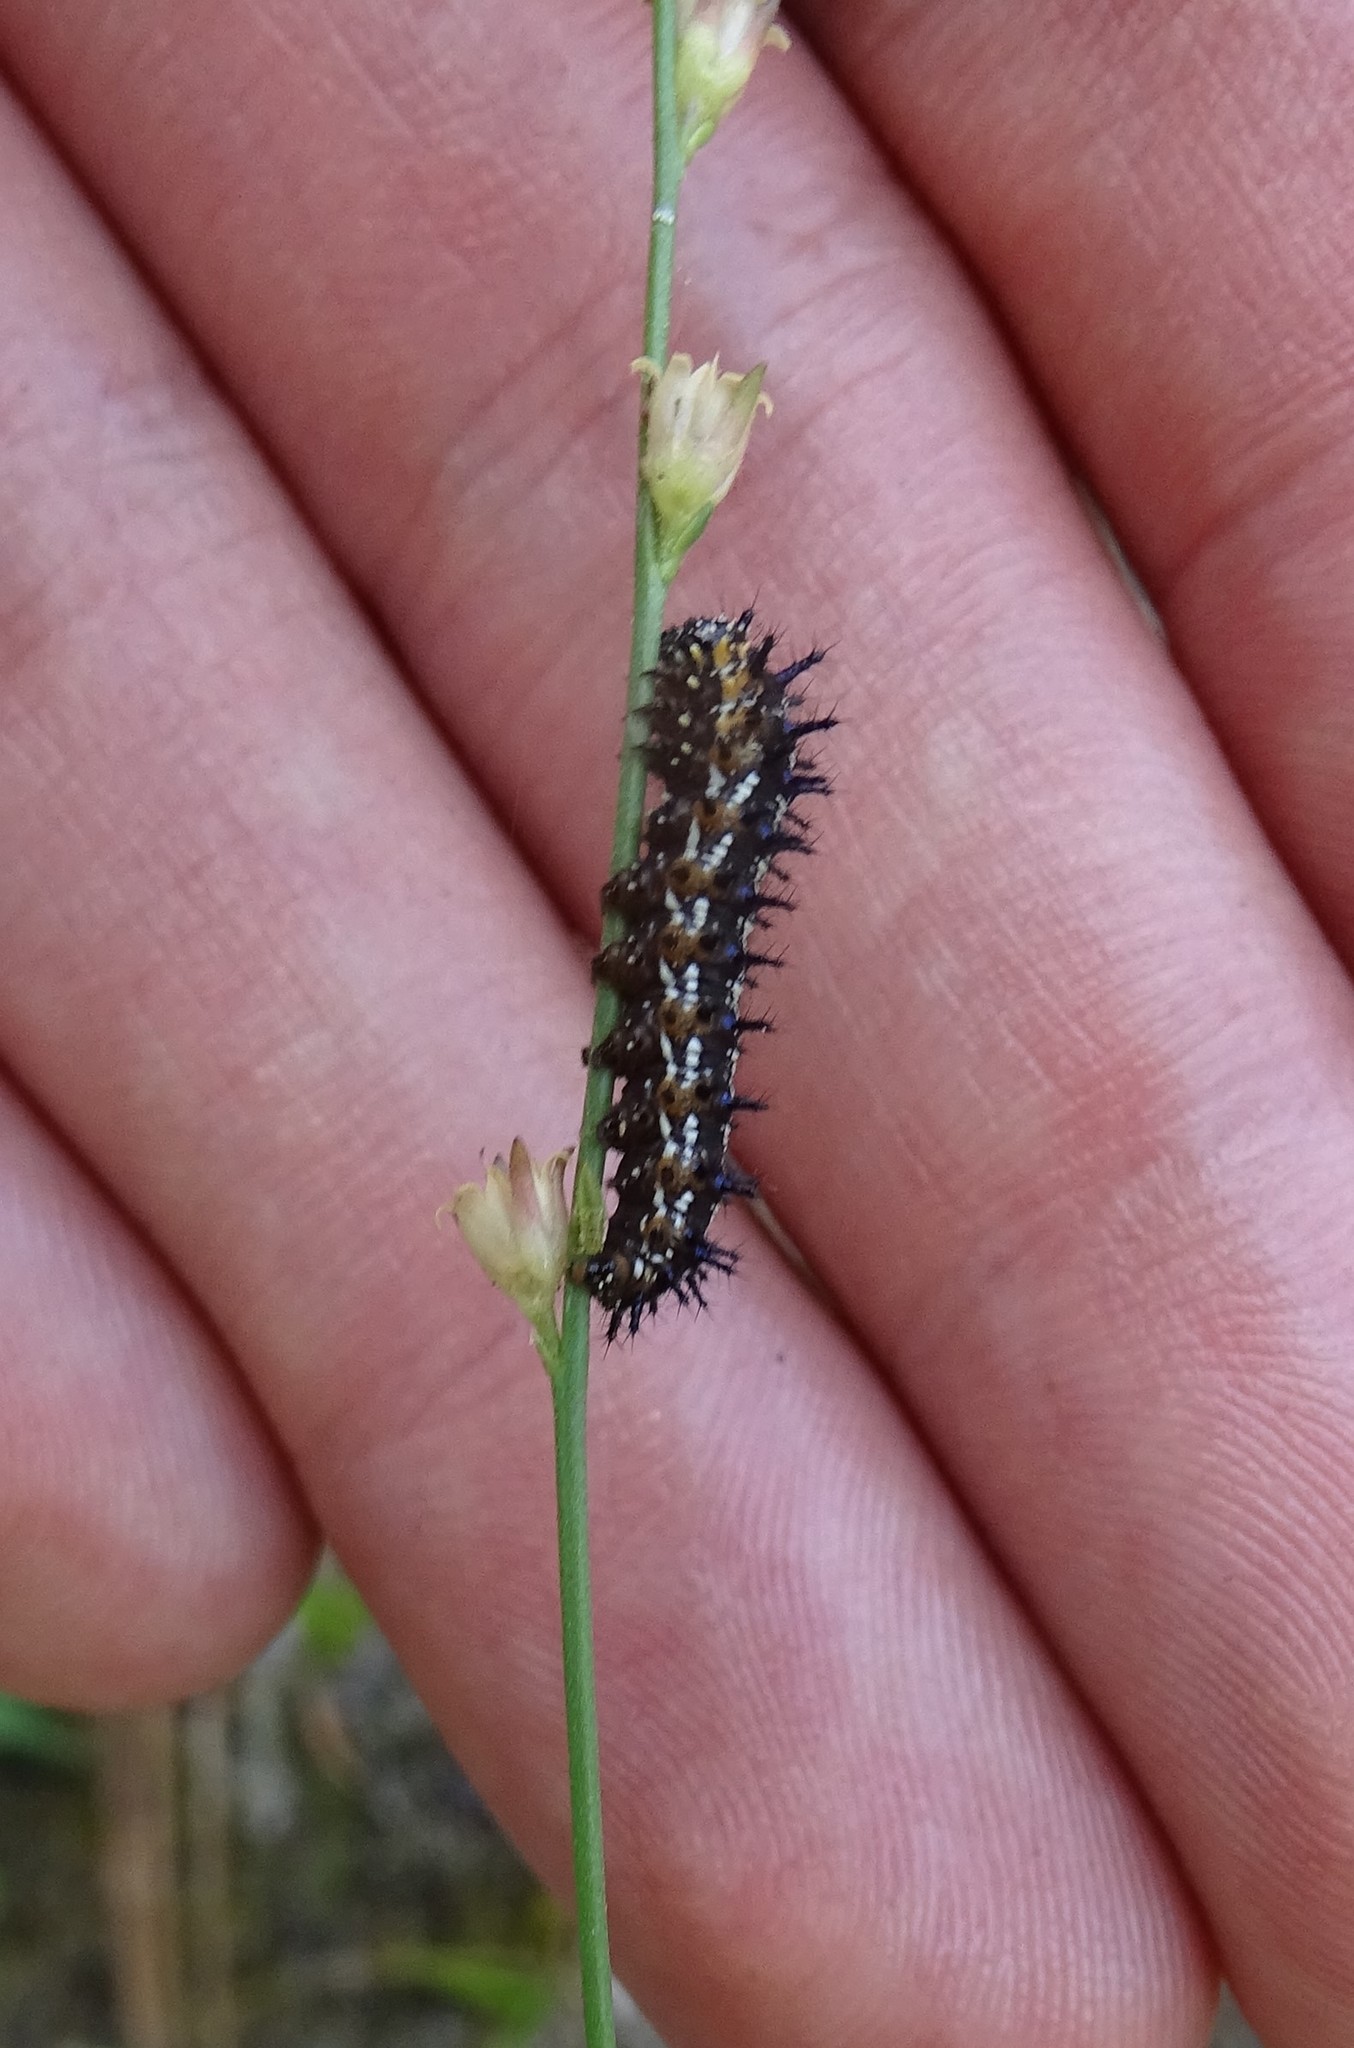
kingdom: Animalia
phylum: Arthropoda
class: Insecta
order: Lepidoptera
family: Nymphalidae
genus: Junonia
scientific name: Junonia coenia
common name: Common buckeye
